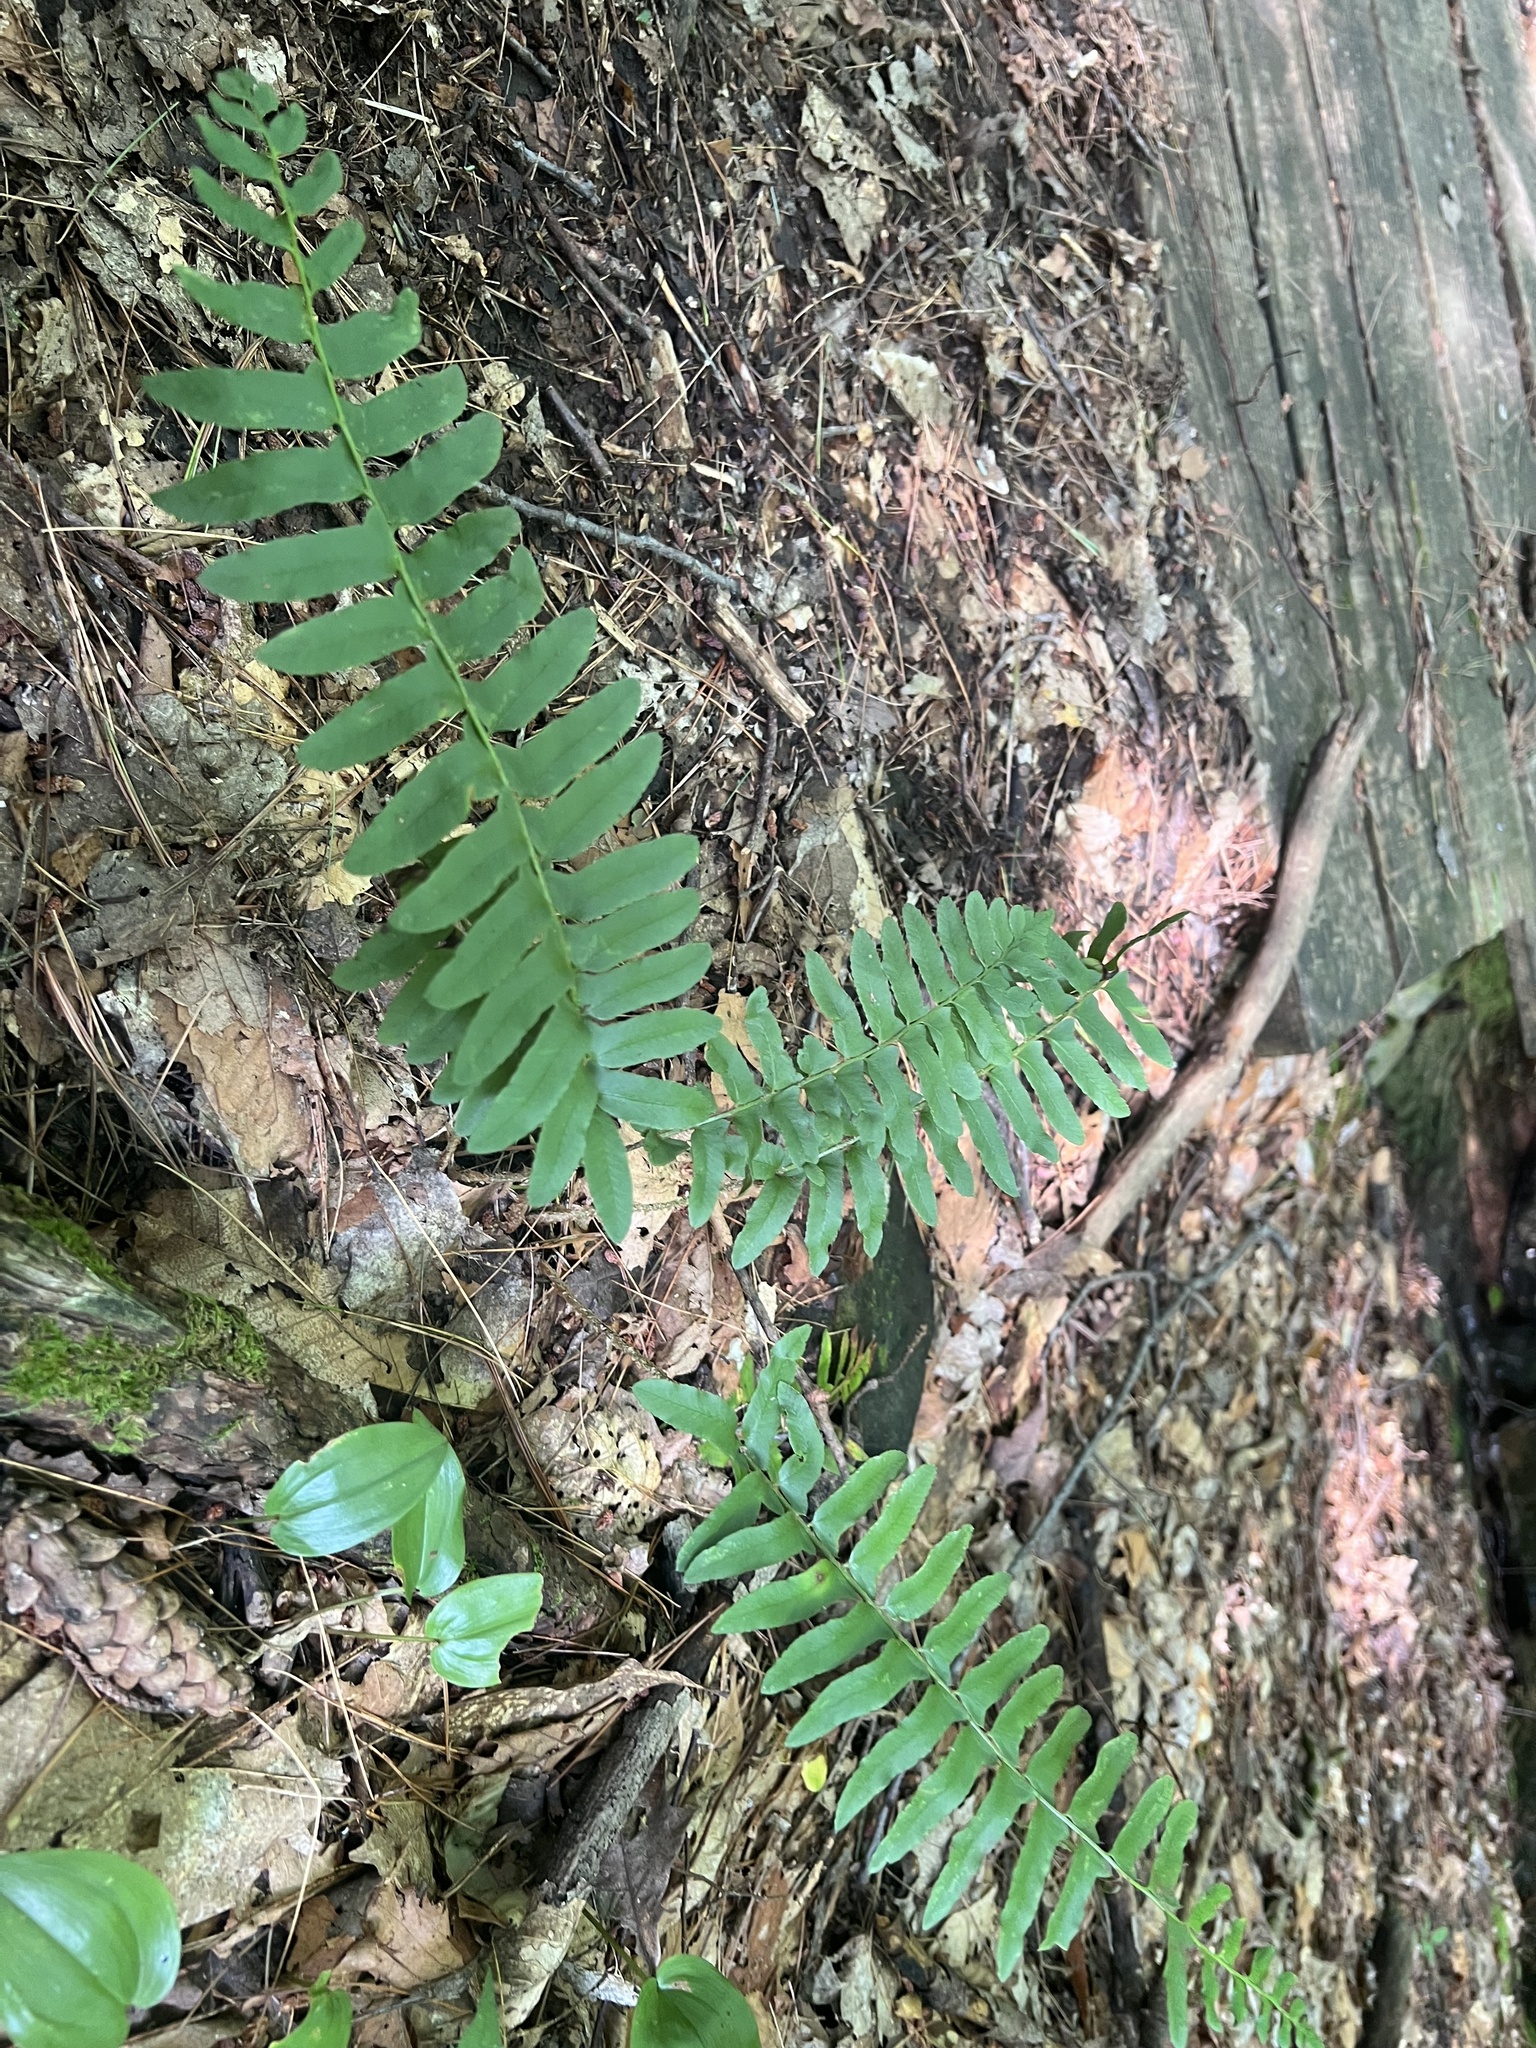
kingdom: Plantae
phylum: Tracheophyta
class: Polypodiopsida
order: Polypodiales
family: Dryopteridaceae
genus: Polystichum
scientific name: Polystichum acrostichoides
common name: Christmas fern
